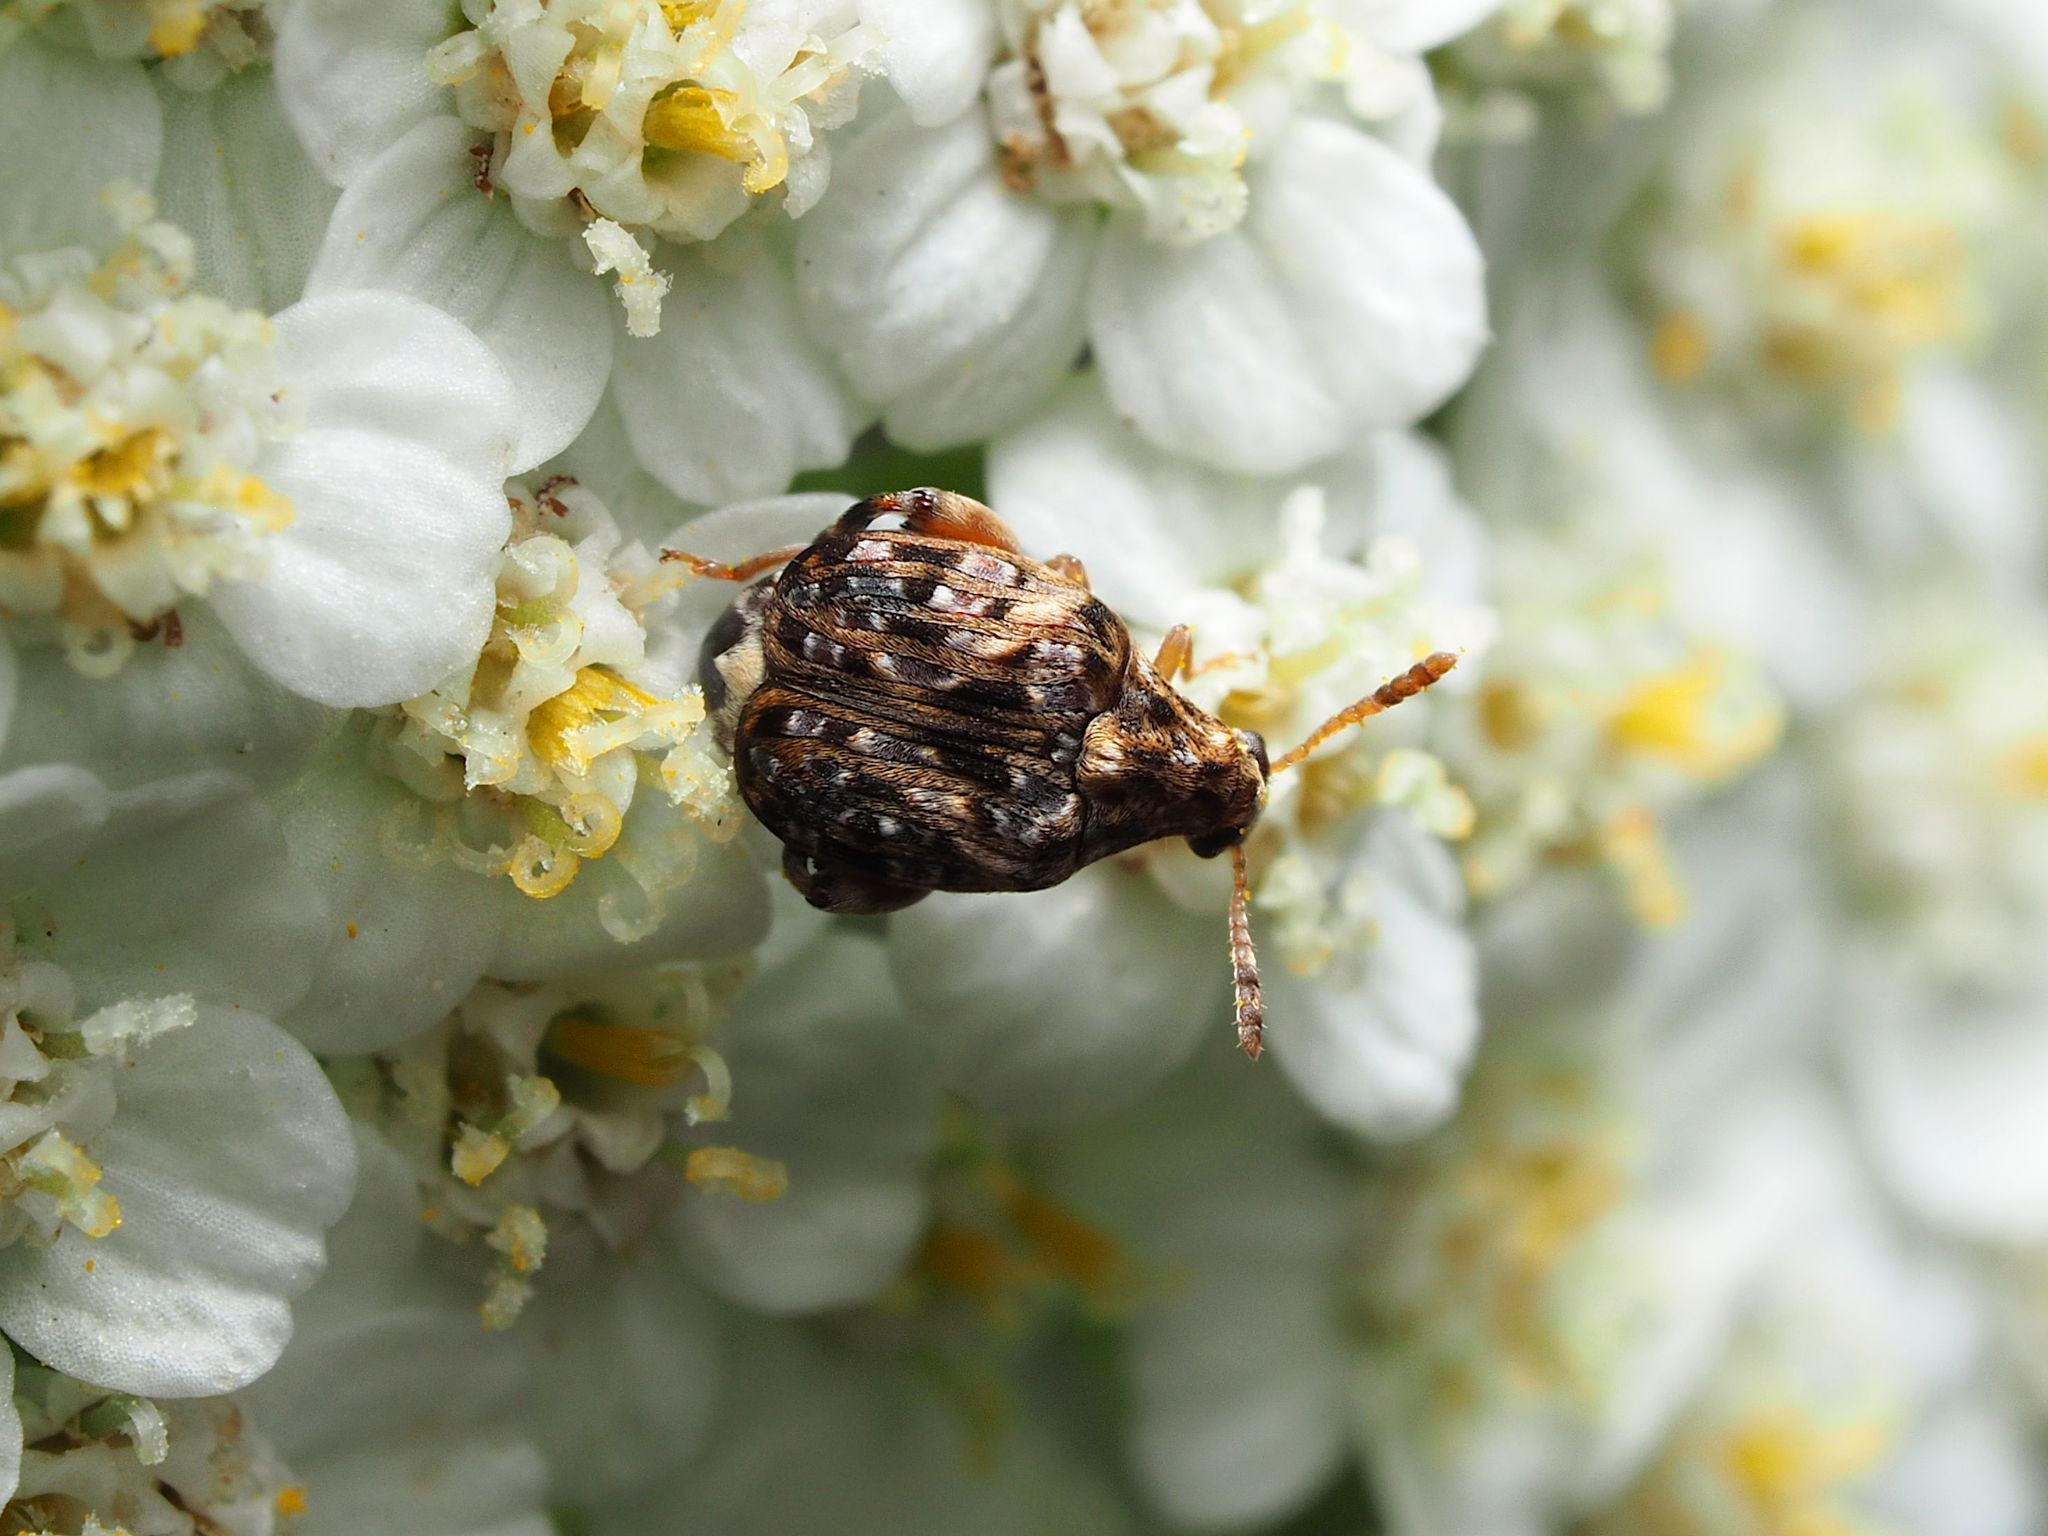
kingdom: Animalia
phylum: Arthropoda
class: Insecta
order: Coleoptera
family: Chrysomelidae
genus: Gibbobruchus
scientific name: Gibbobruchus mimus
